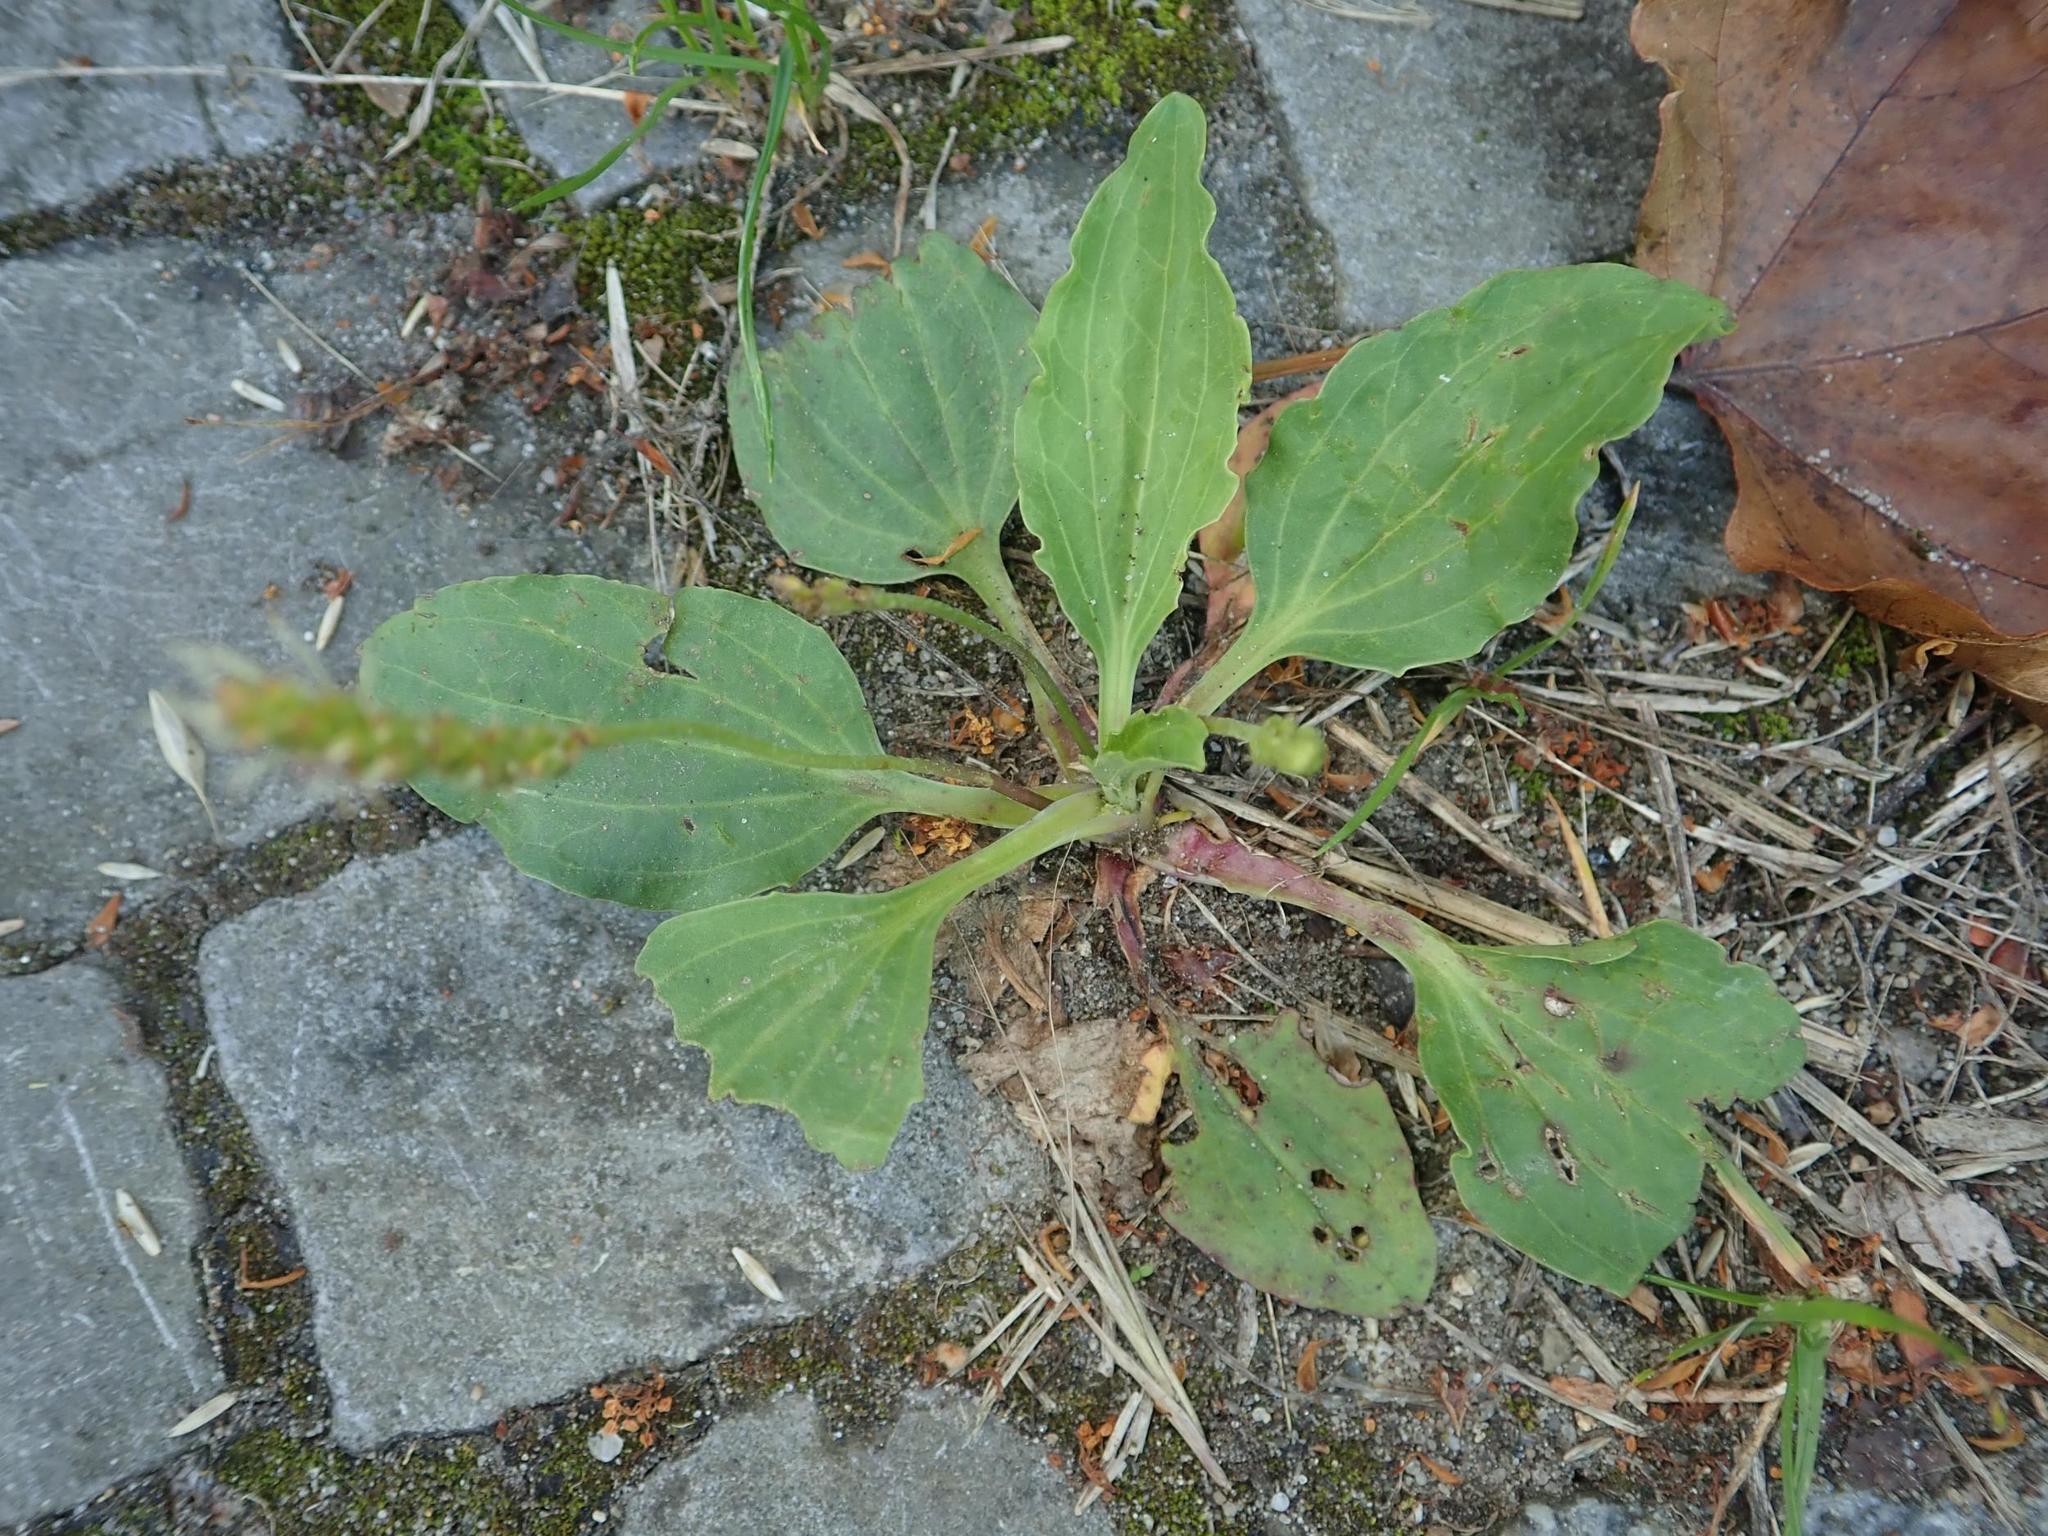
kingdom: Plantae
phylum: Tracheophyta
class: Magnoliopsida
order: Lamiales
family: Plantaginaceae
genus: Plantago
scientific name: Plantago major
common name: Common plantain
